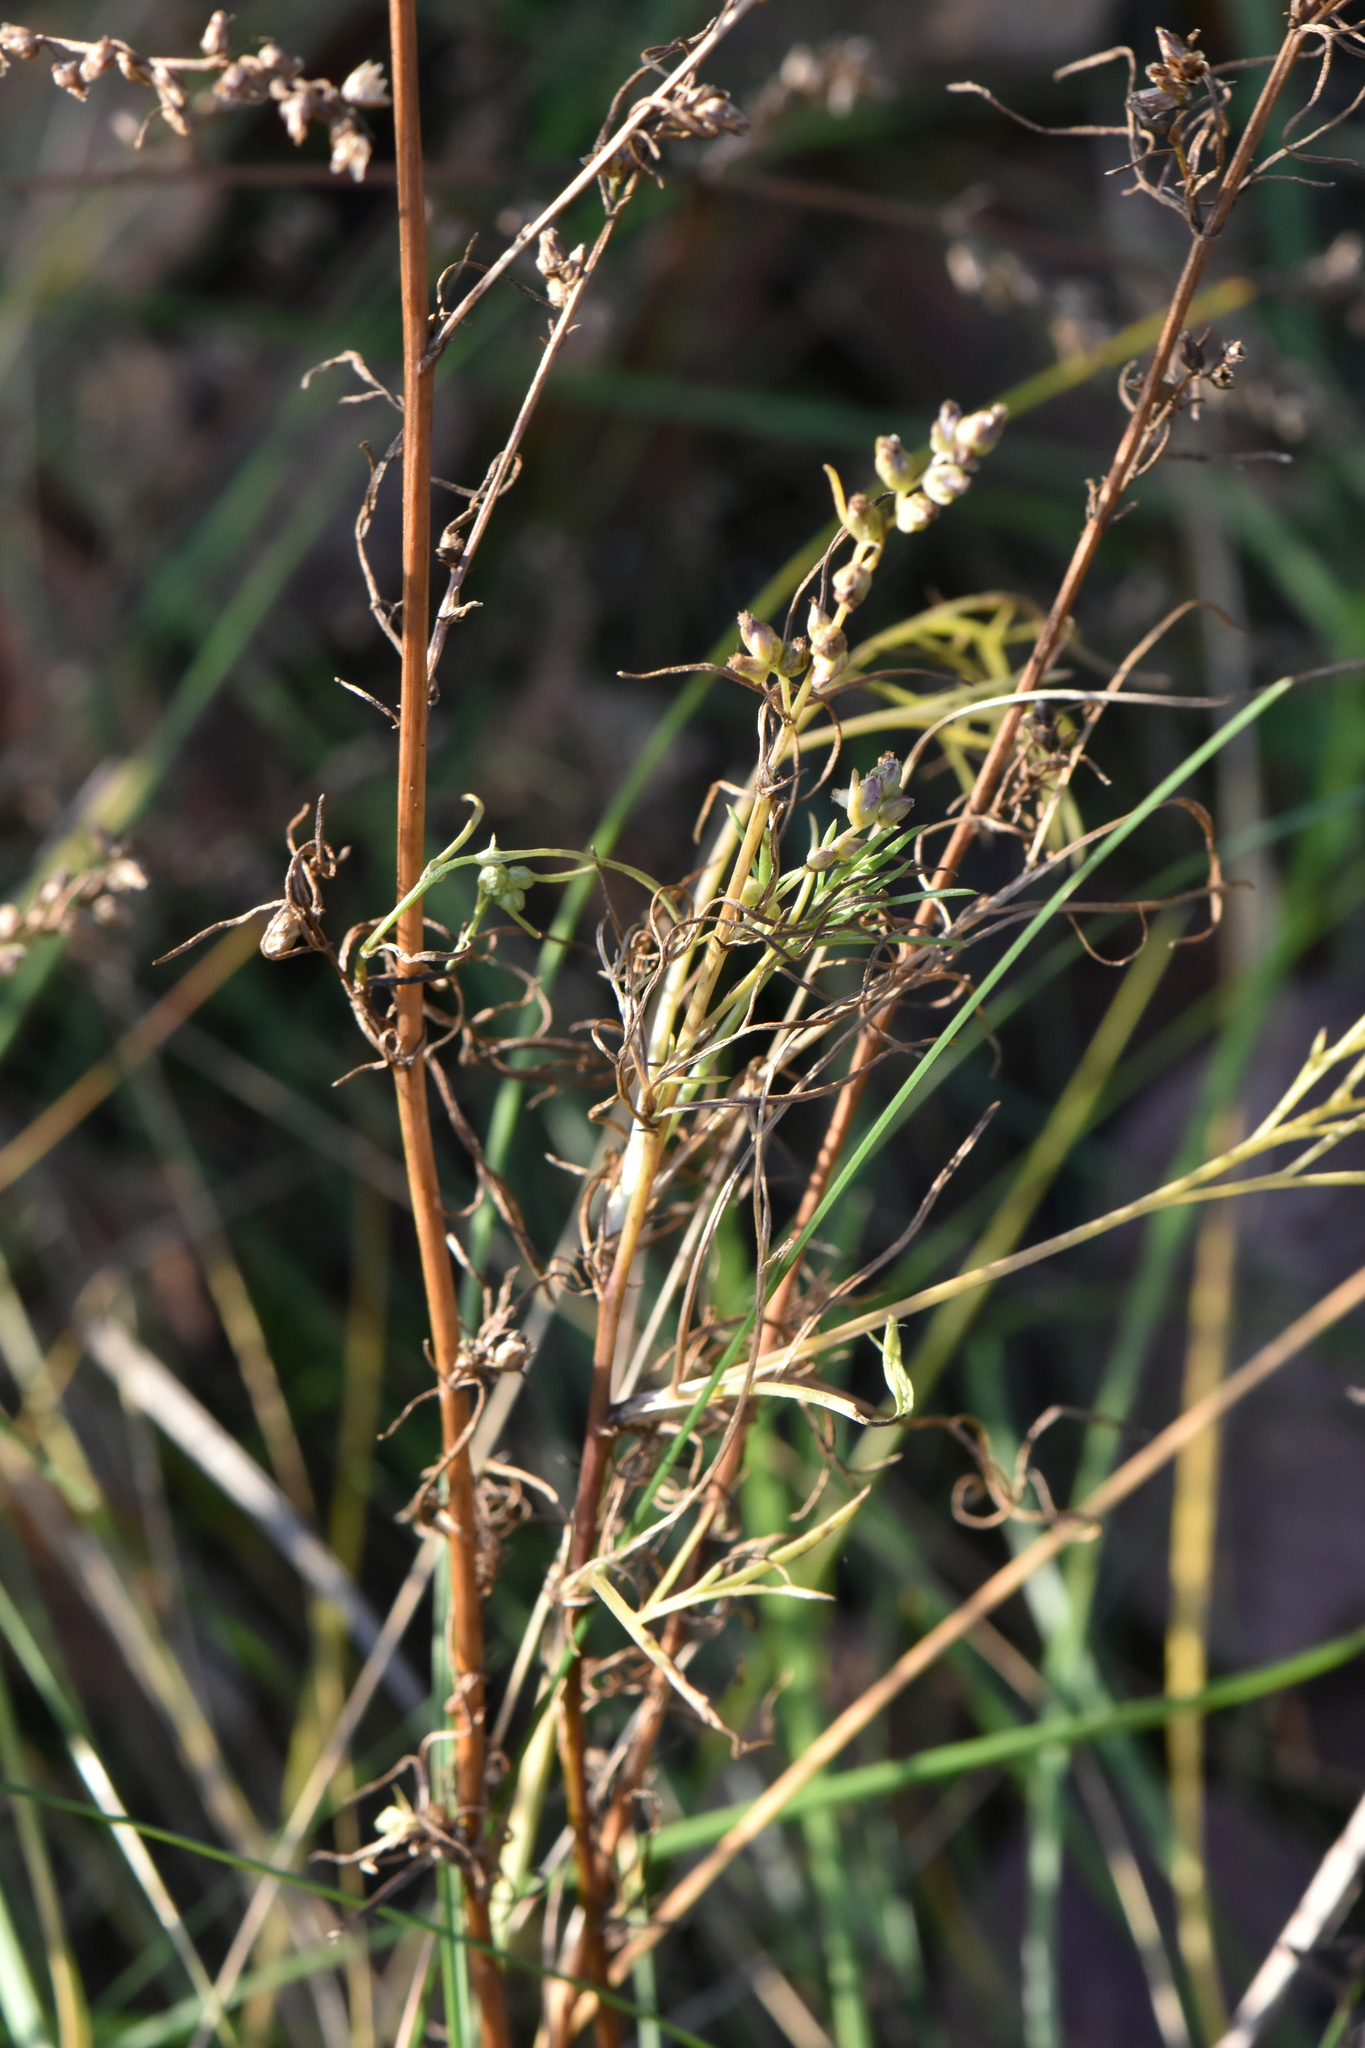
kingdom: Plantae
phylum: Tracheophyta
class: Magnoliopsida
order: Asterales
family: Asteraceae
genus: Artemisia
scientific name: Artemisia campestris
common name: Field wormwood
